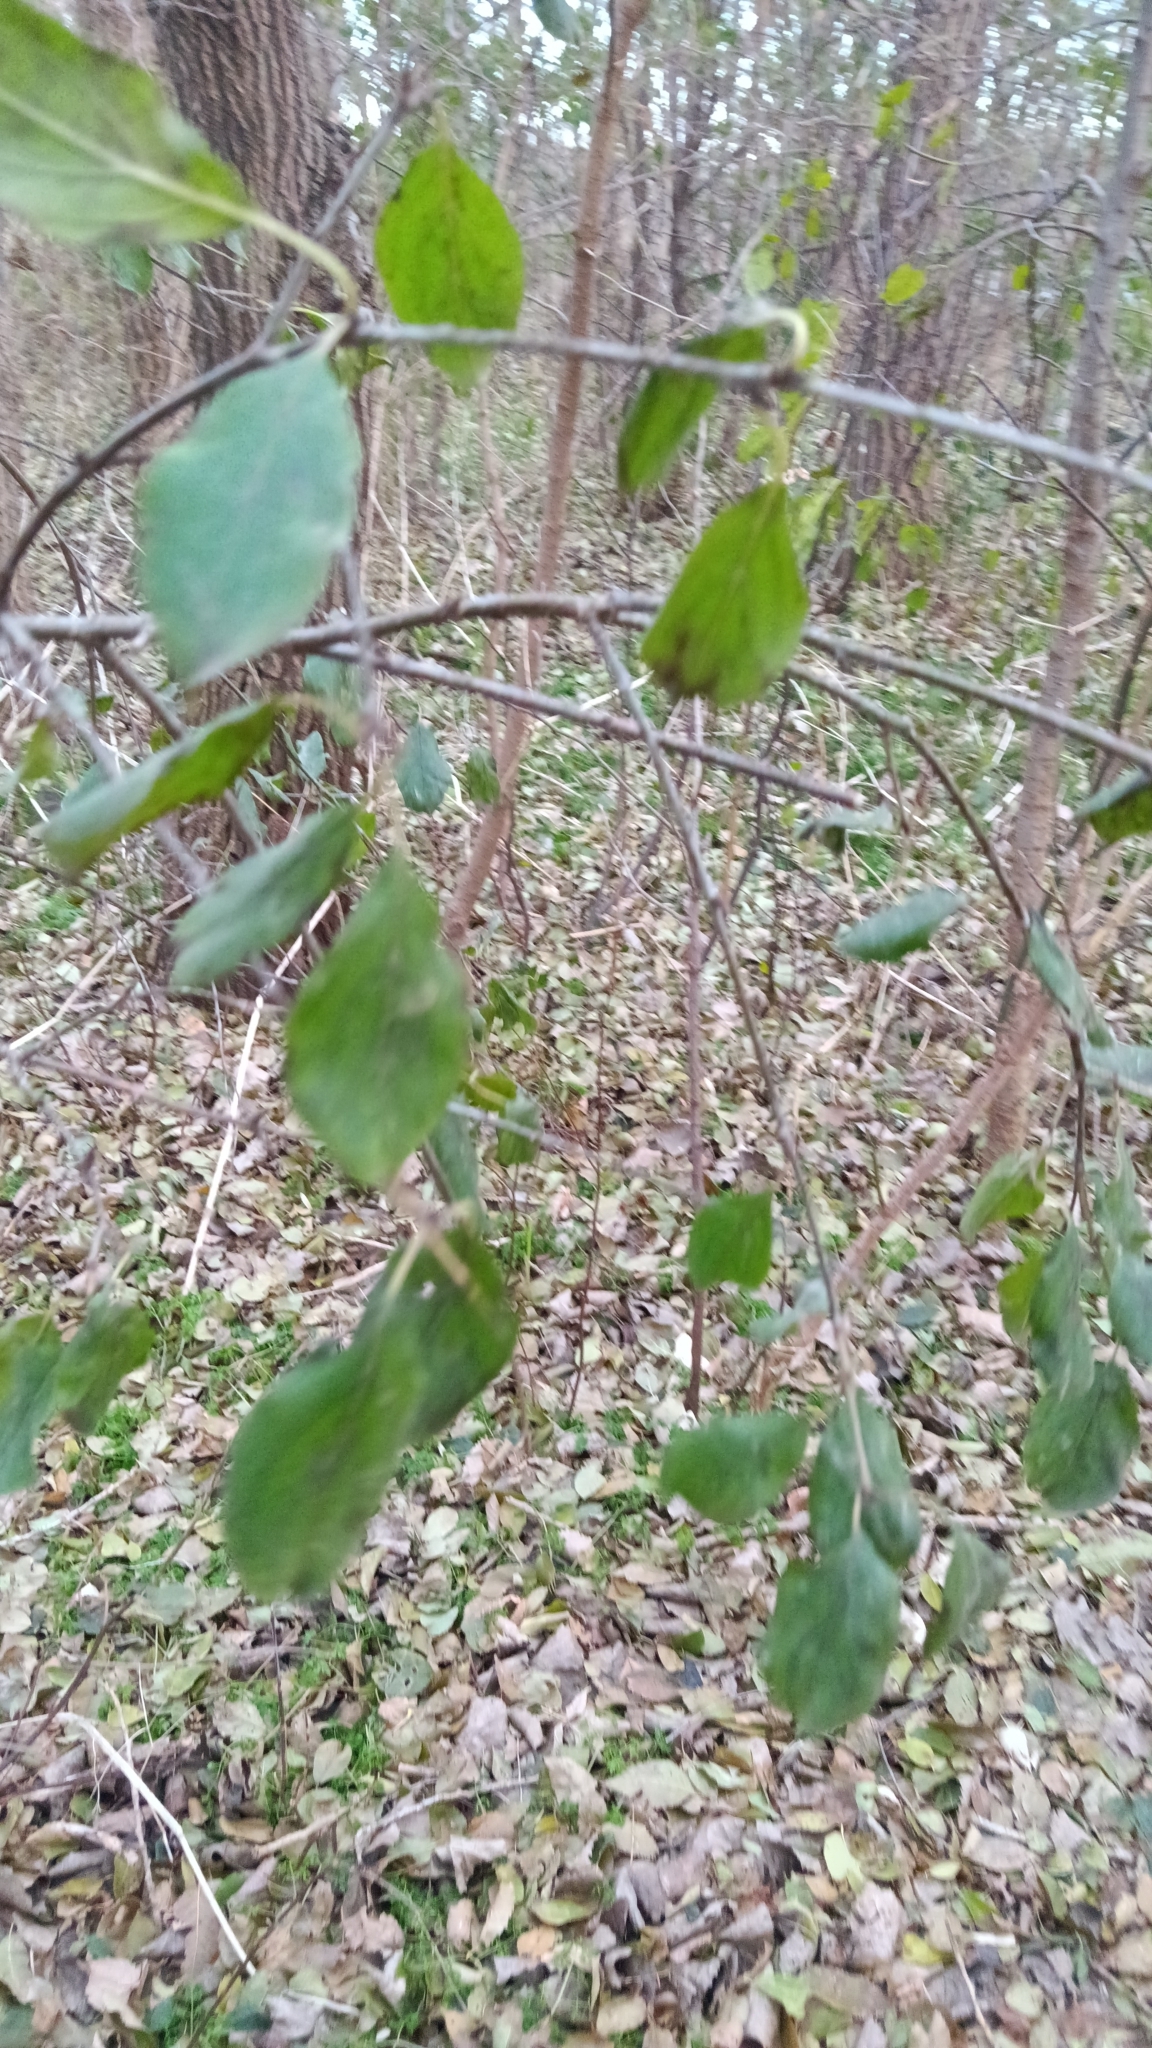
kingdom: Plantae
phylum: Tracheophyta
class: Magnoliopsida
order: Rosales
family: Rhamnaceae
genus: Rhamnus
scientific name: Rhamnus cathartica
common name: Common buckthorn
